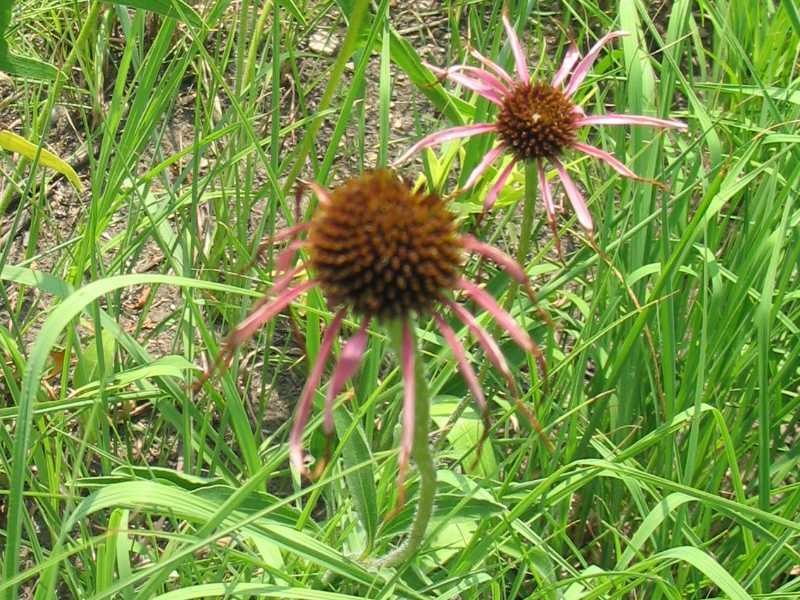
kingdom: Plantae
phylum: Tracheophyta
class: Magnoliopsida
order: Asterales
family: Asteraceae
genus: Echinacea
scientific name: Echinacea pallida
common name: Pale echinacea
